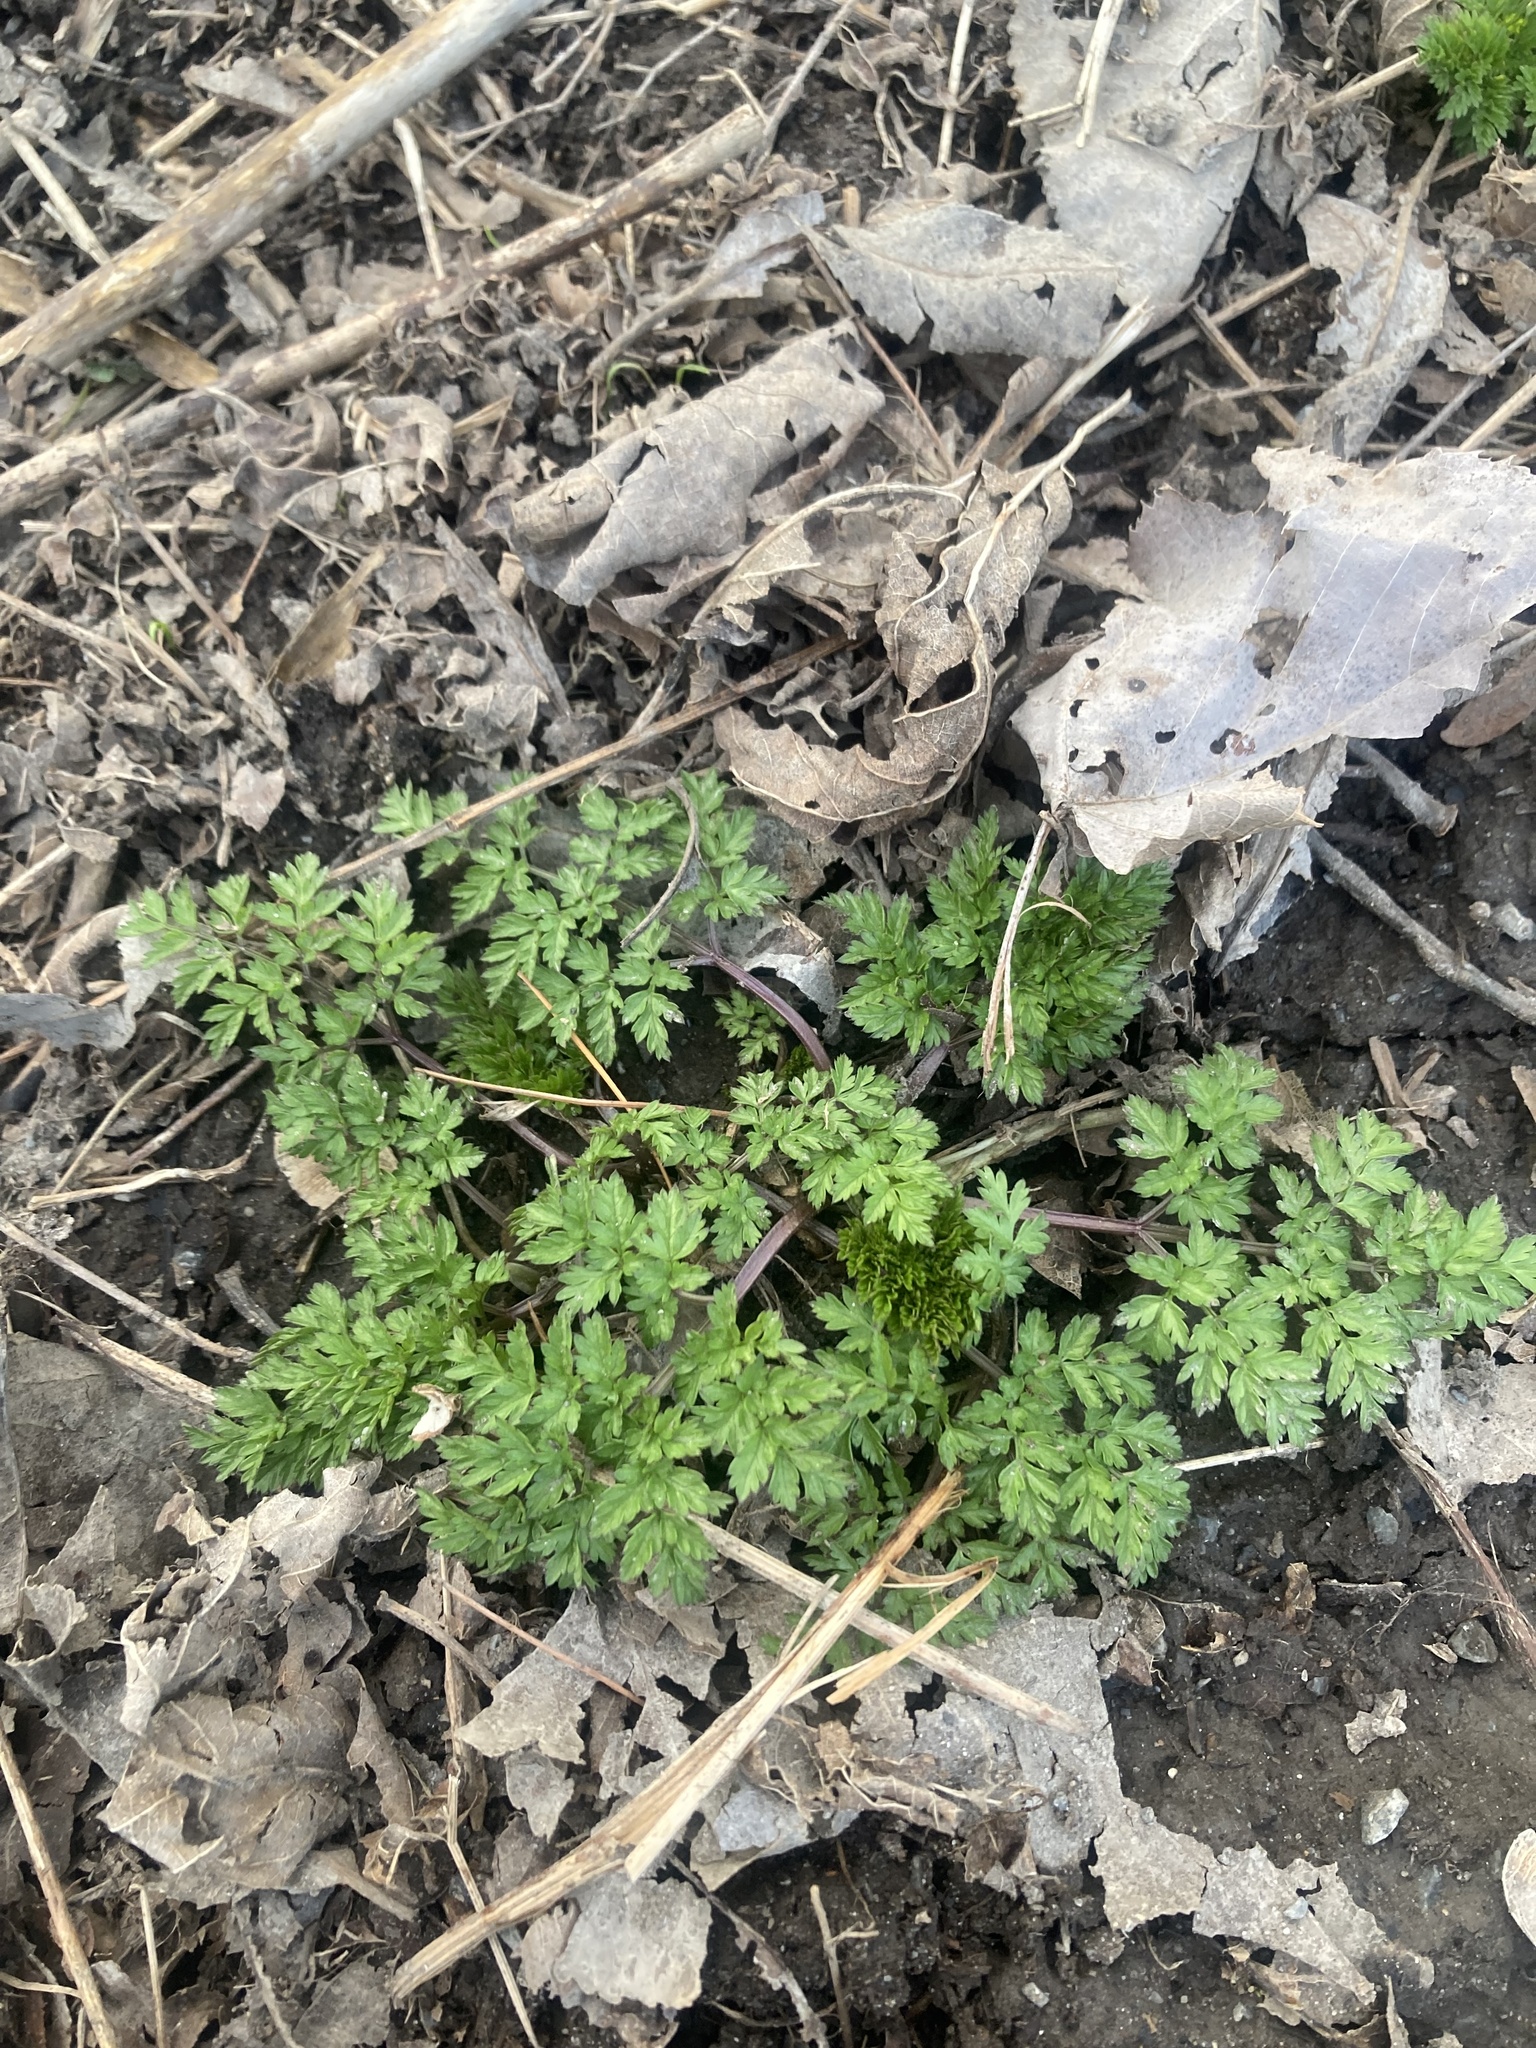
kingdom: Plantae
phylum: Tracheophyta
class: Magnoliopsida
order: Apiales
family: Apiaceae
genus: Anthriscus
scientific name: Anthriscus sylvestris
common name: Cow parsley
